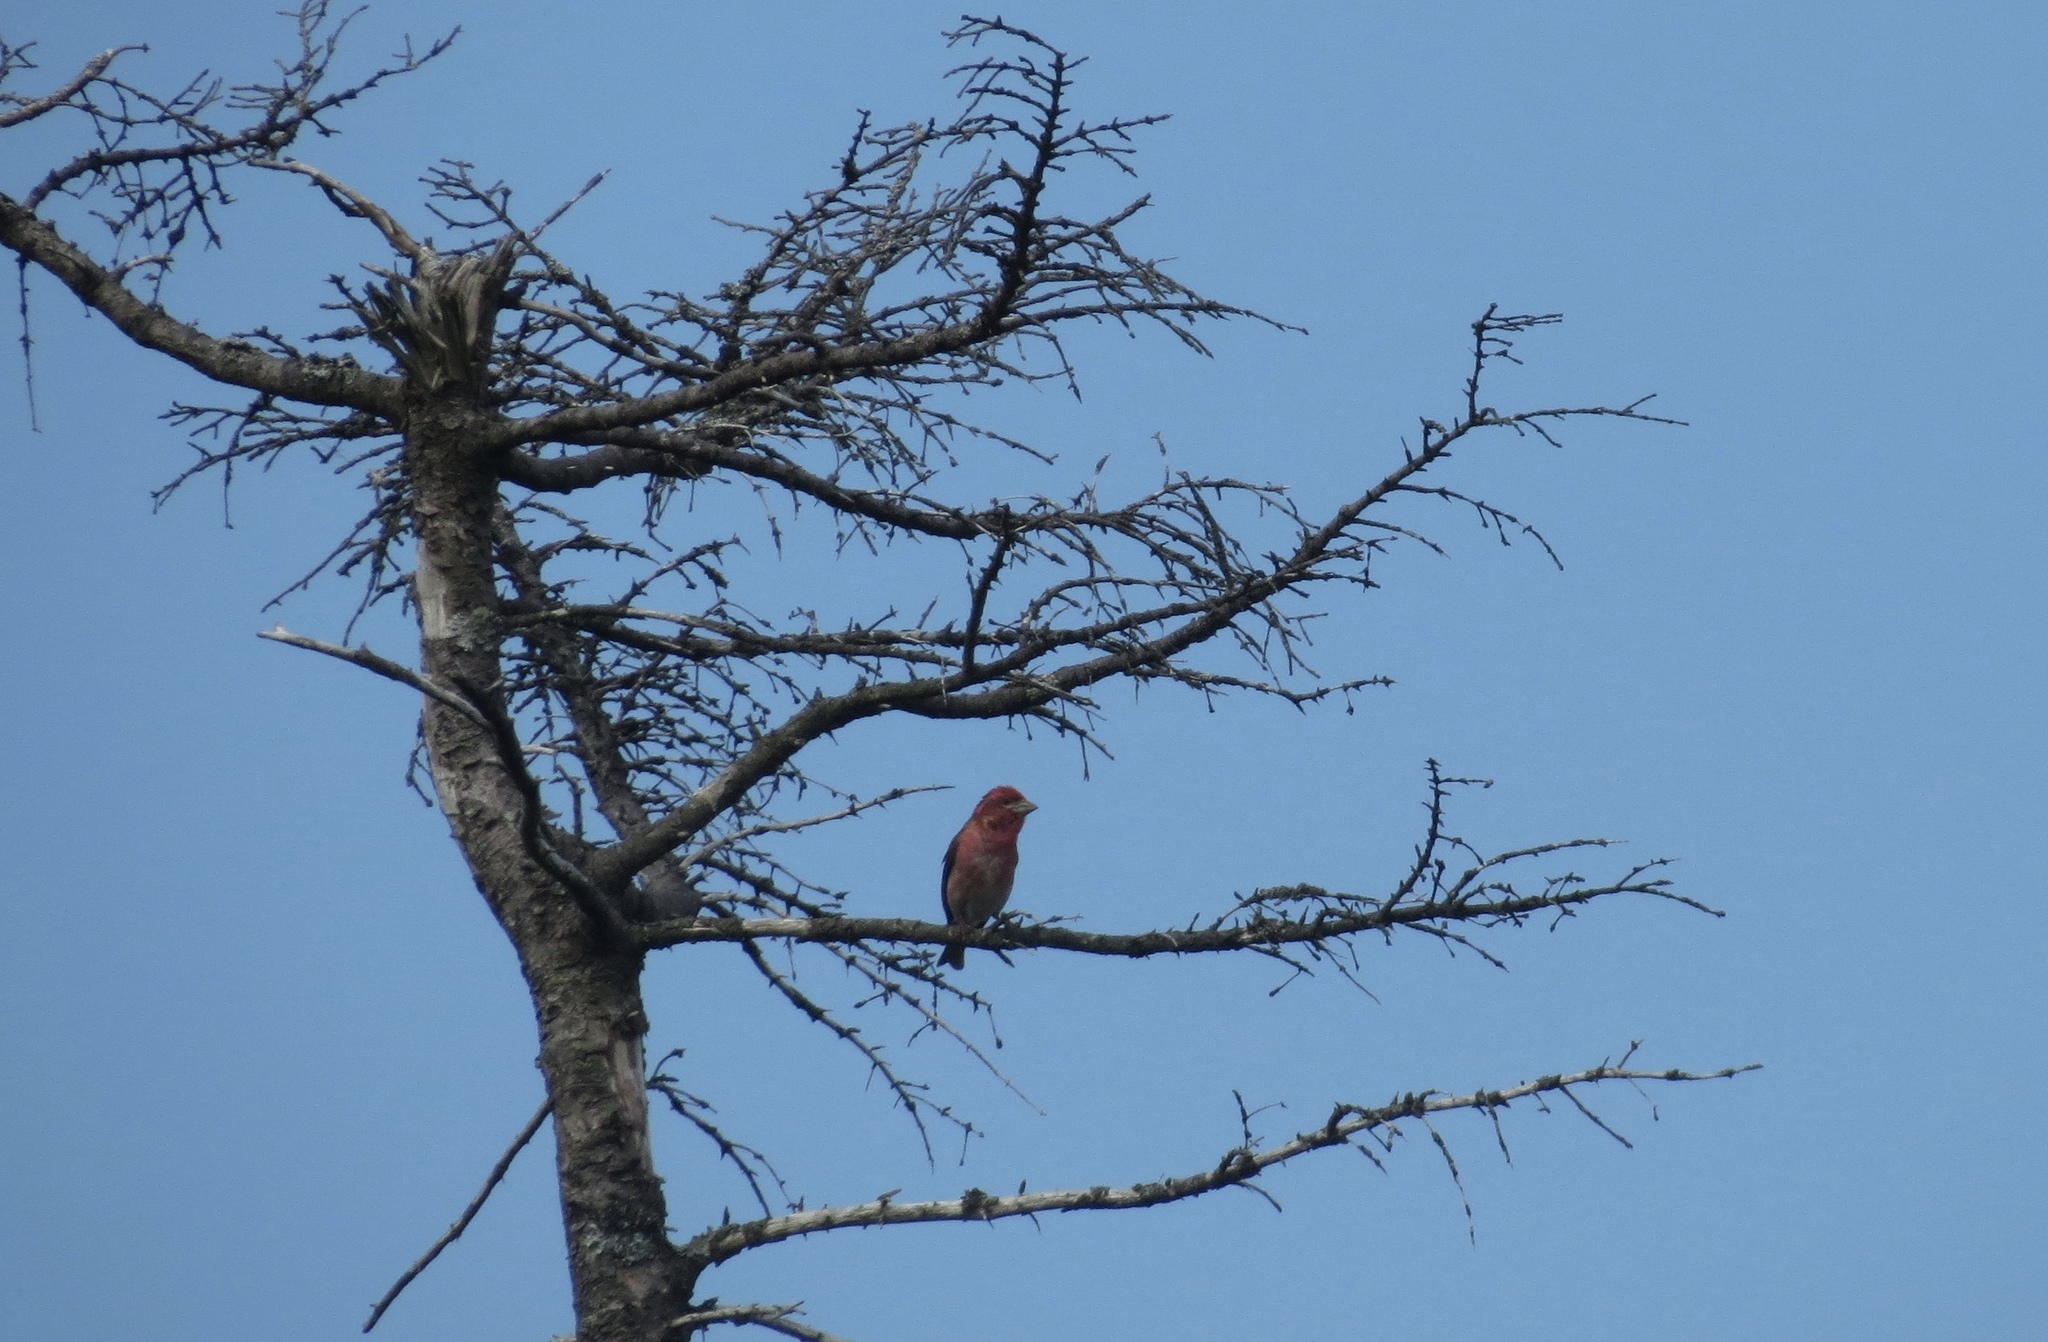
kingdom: Animalia
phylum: Chordata
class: Aves
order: Passeriformes
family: Fringillidae
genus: Haemorhous
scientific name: Haemorhous purpureus
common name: Purple finch
